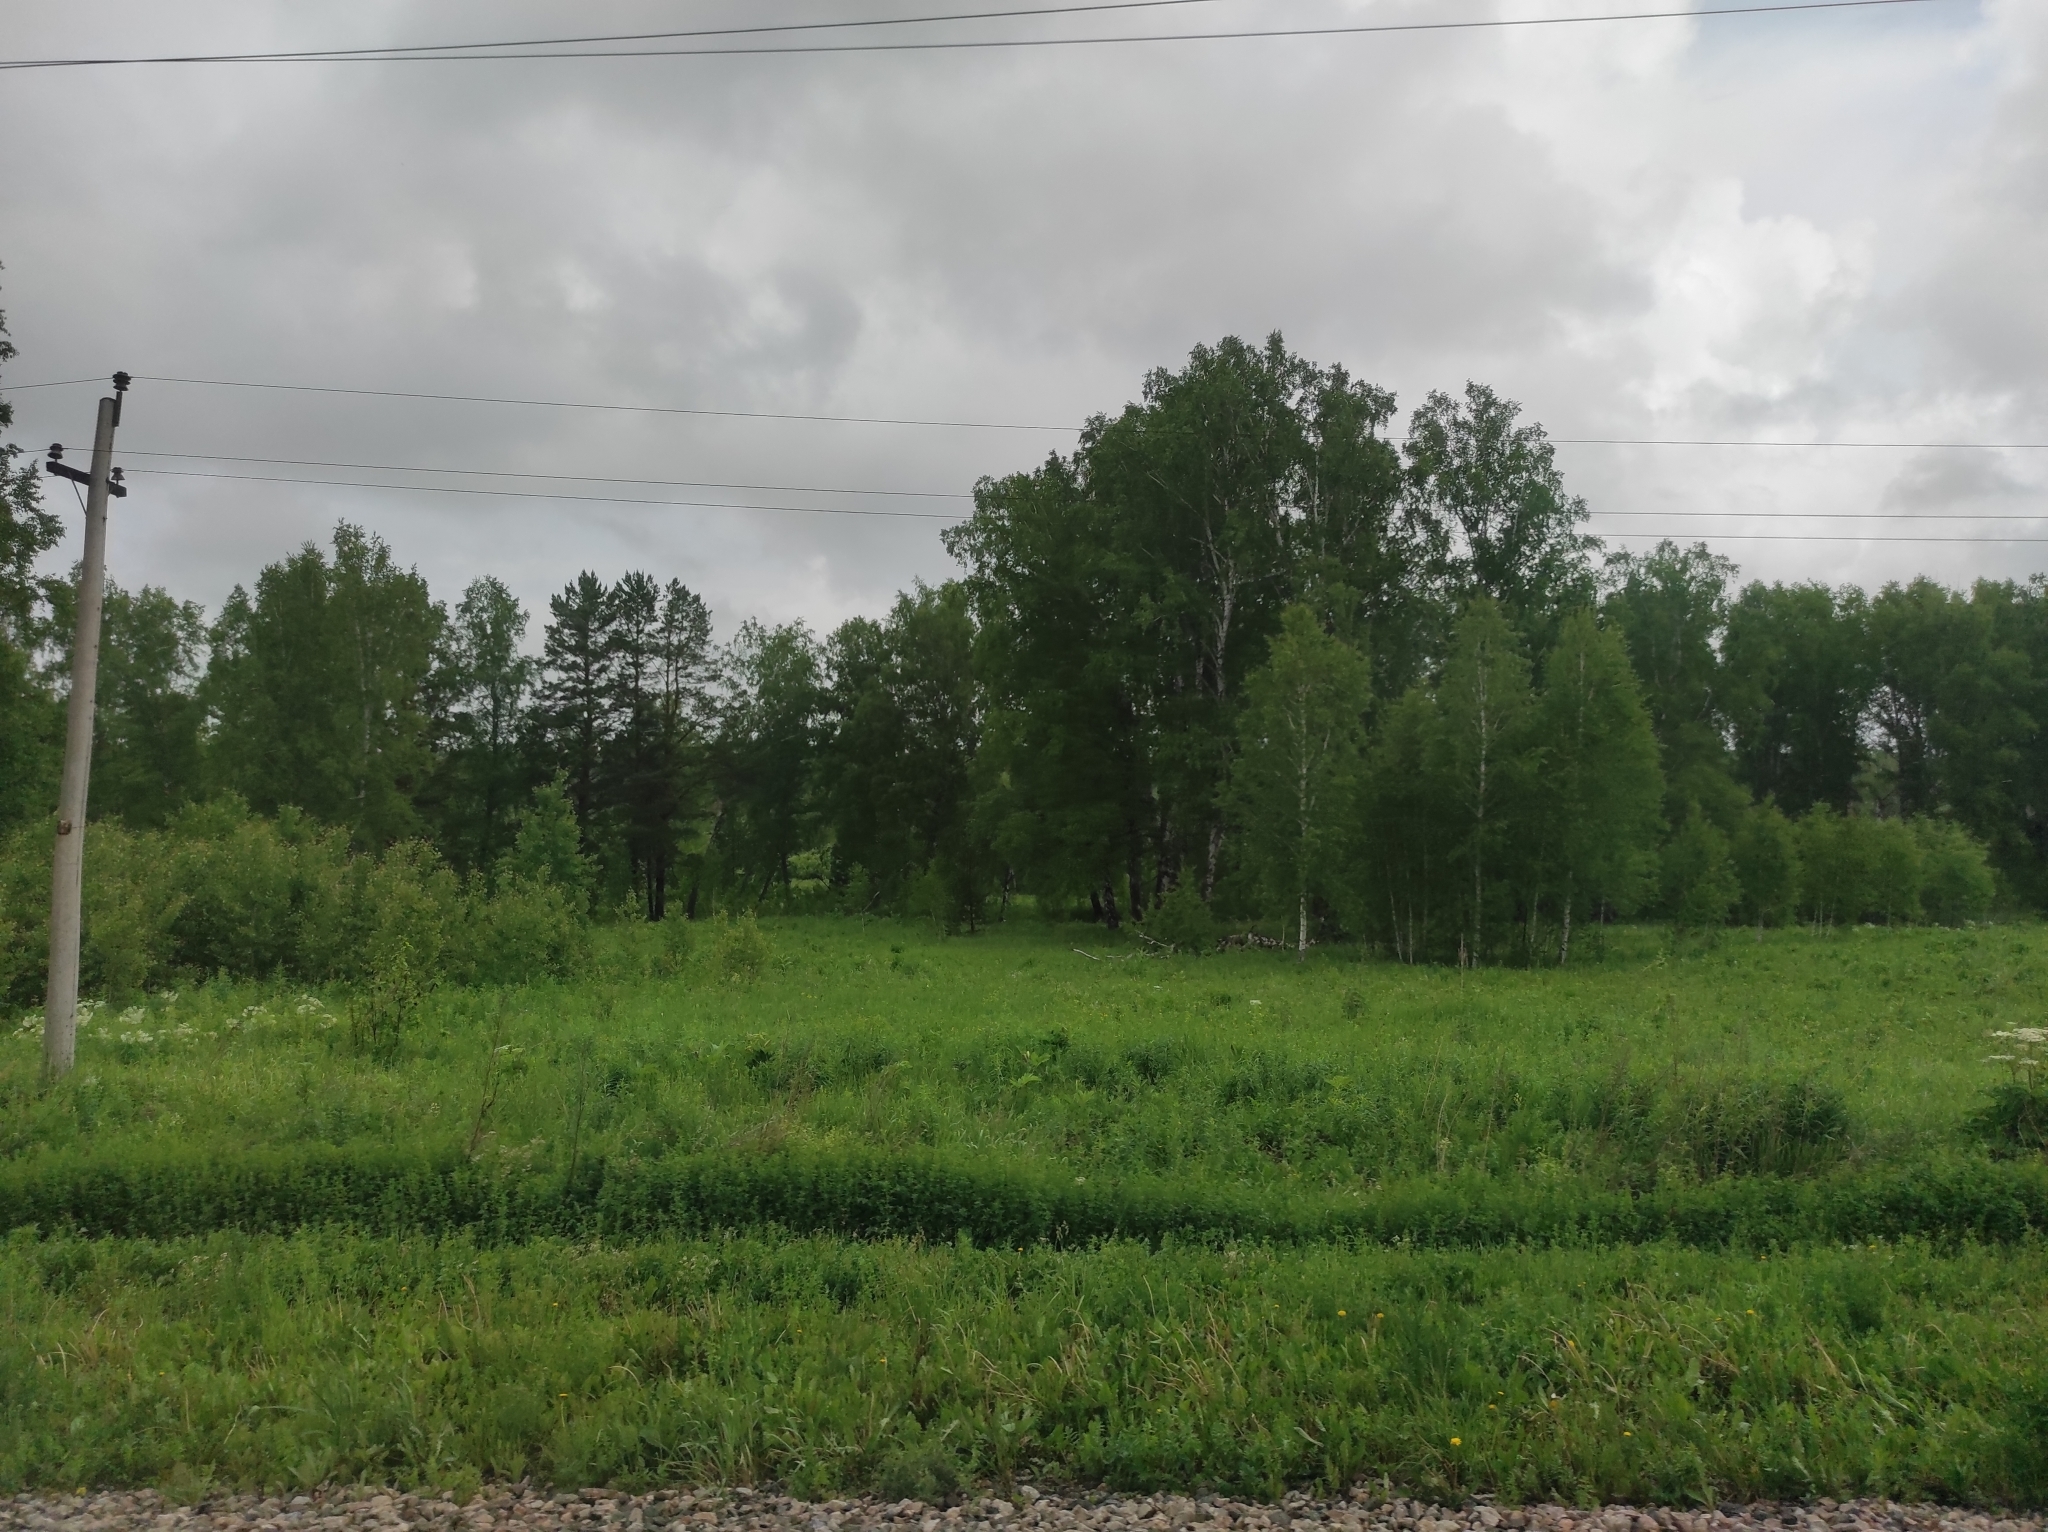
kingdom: Plantae
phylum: Tracheophyta
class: Pinopsida
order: Pinales
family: Pinaceae
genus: Pinus
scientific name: Pinus sylvestris
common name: Scots pine
